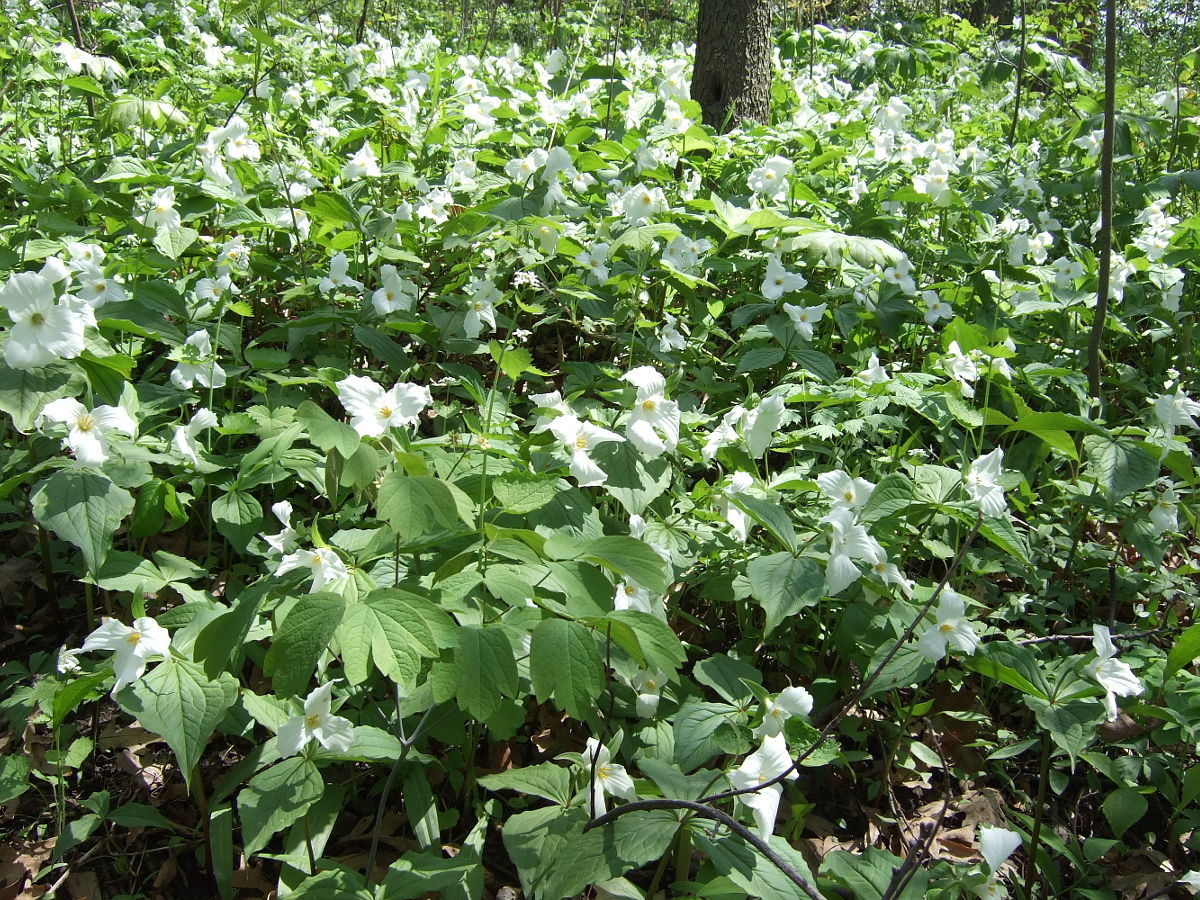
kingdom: Plantae
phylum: Tracheophyta
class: Liliopsida
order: Liliales
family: Melanthiaceae
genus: Trillium
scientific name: Trillium grandiflorum
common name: Great white trillium
